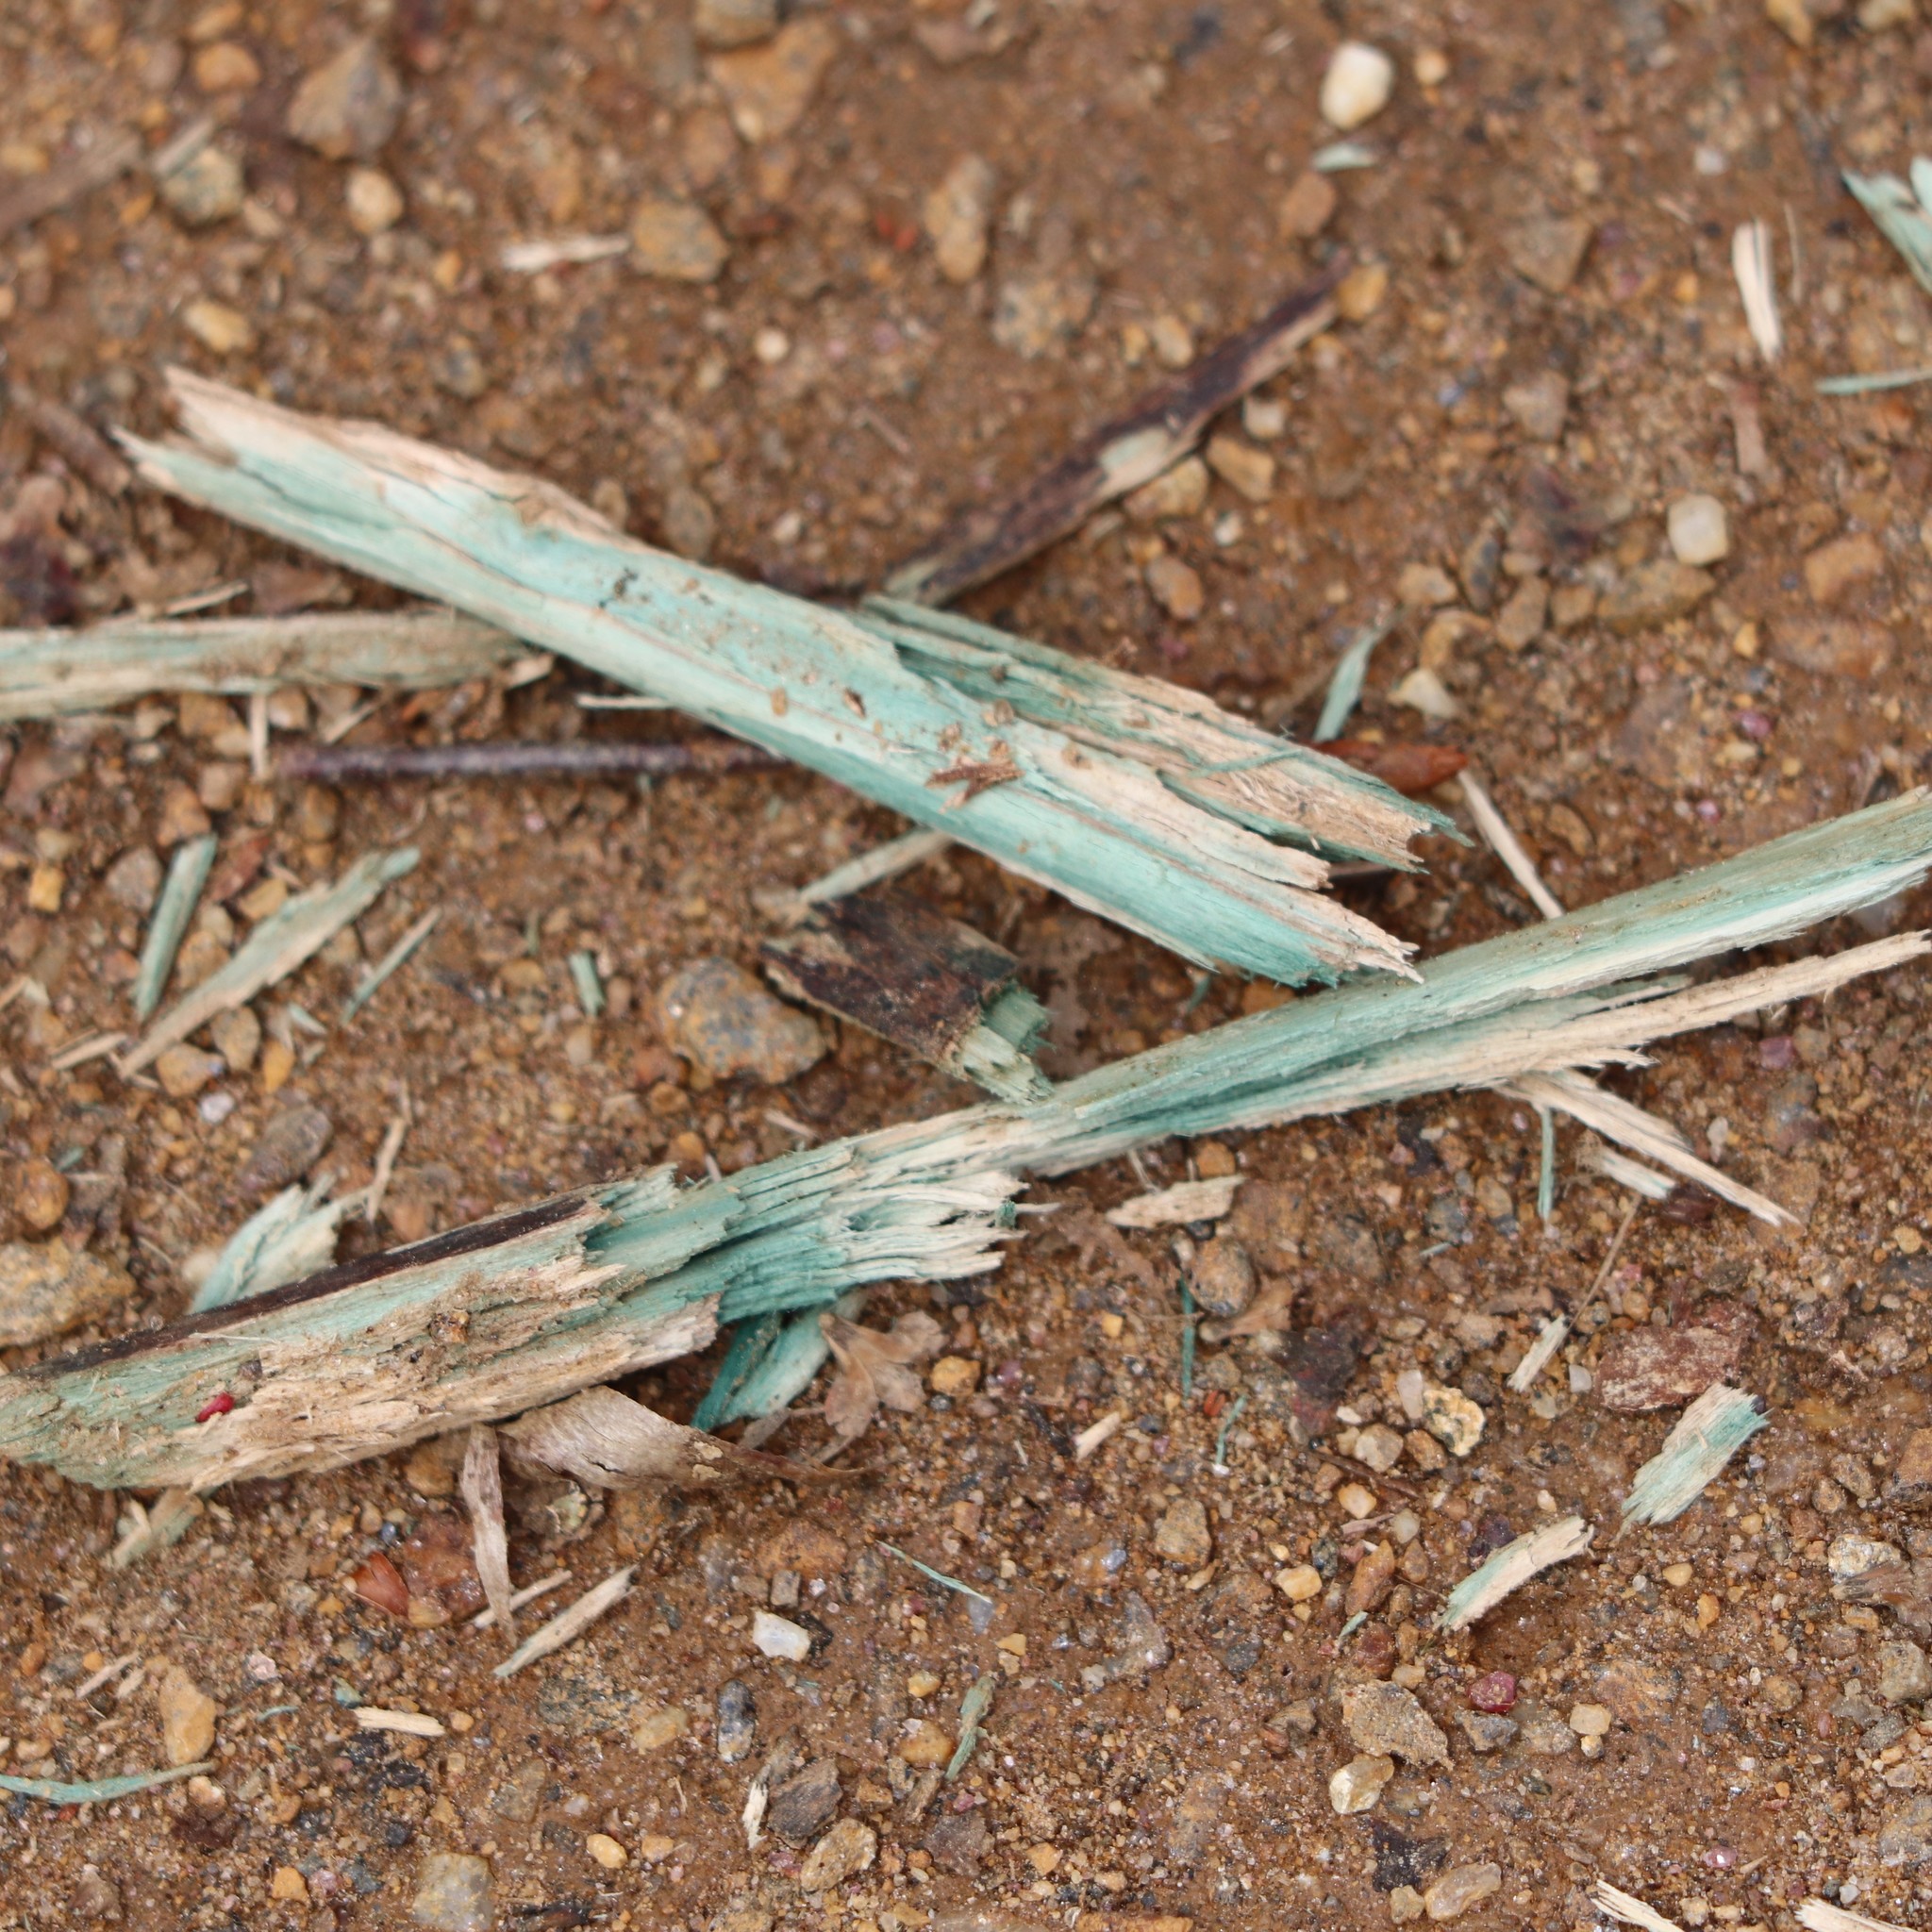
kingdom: Fungi
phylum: Ascomycota
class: Leotiomycetes
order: Helotiales
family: Chlorociboriaceae
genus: Chlorociboria
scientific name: Chlorociboria
